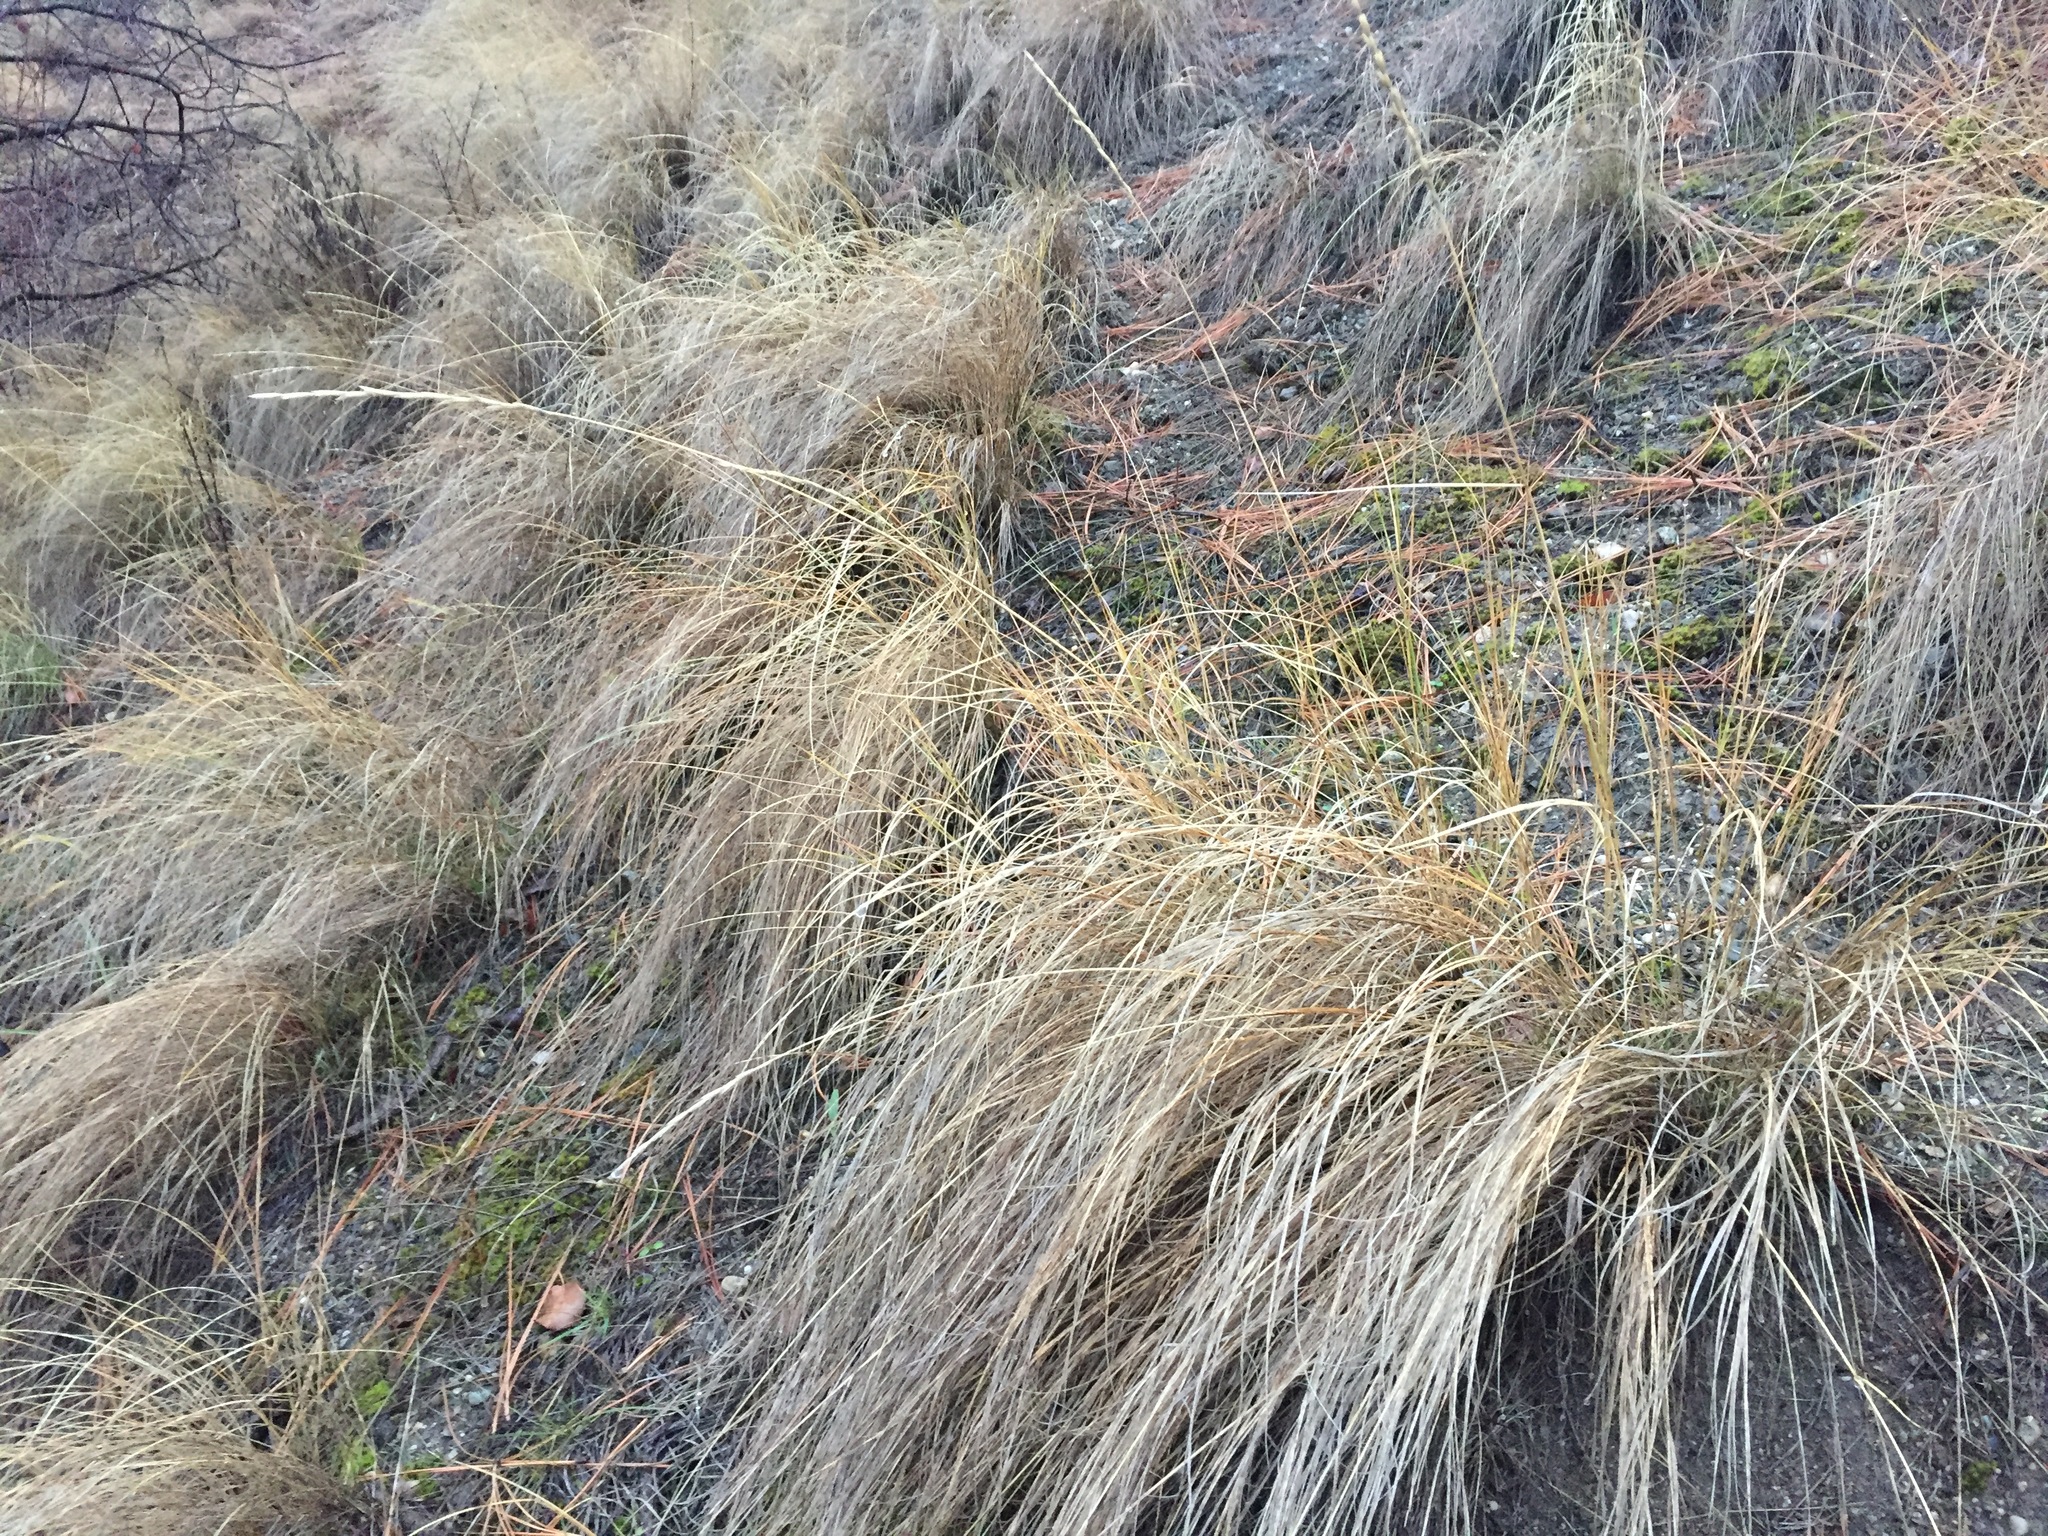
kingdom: Plantae
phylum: Tracheophyta
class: Liliopsida
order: Poales
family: Poaceae
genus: Pseudoroegneria
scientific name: Pseudoroegneria spicata
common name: Bluebunch wheatgrass
